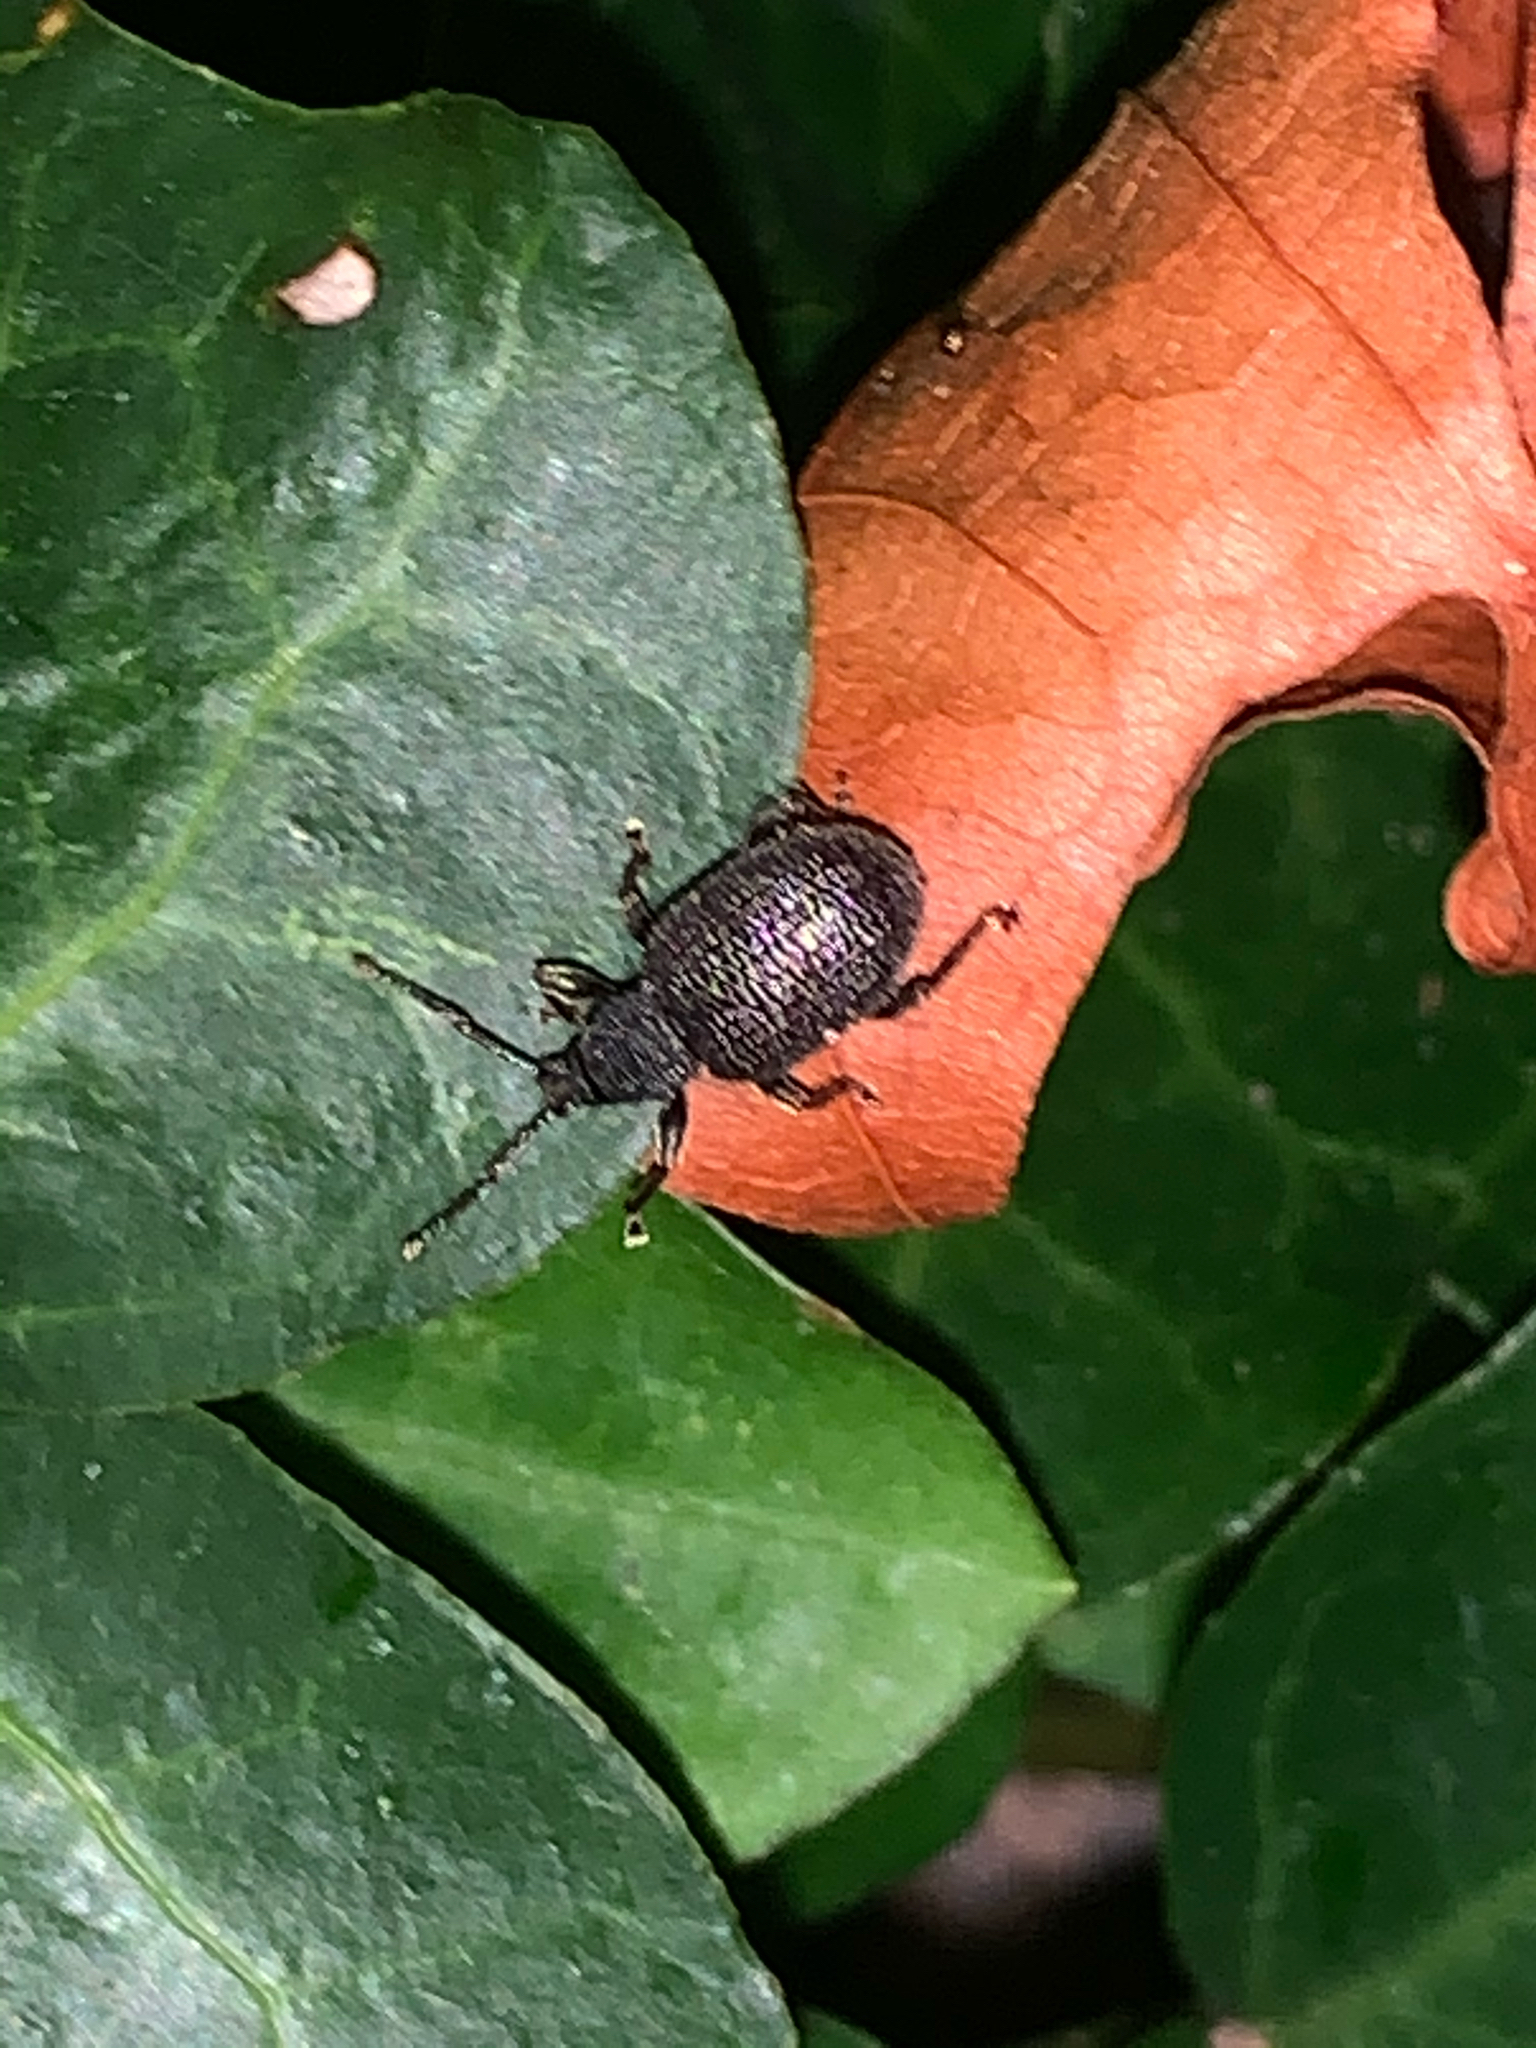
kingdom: Animalia
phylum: Arthropoda
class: Insecta
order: Coleoptera
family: Curculionidae
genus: Otiorhynchus
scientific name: Otiorhynchus rugosostriatus
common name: Weevil
